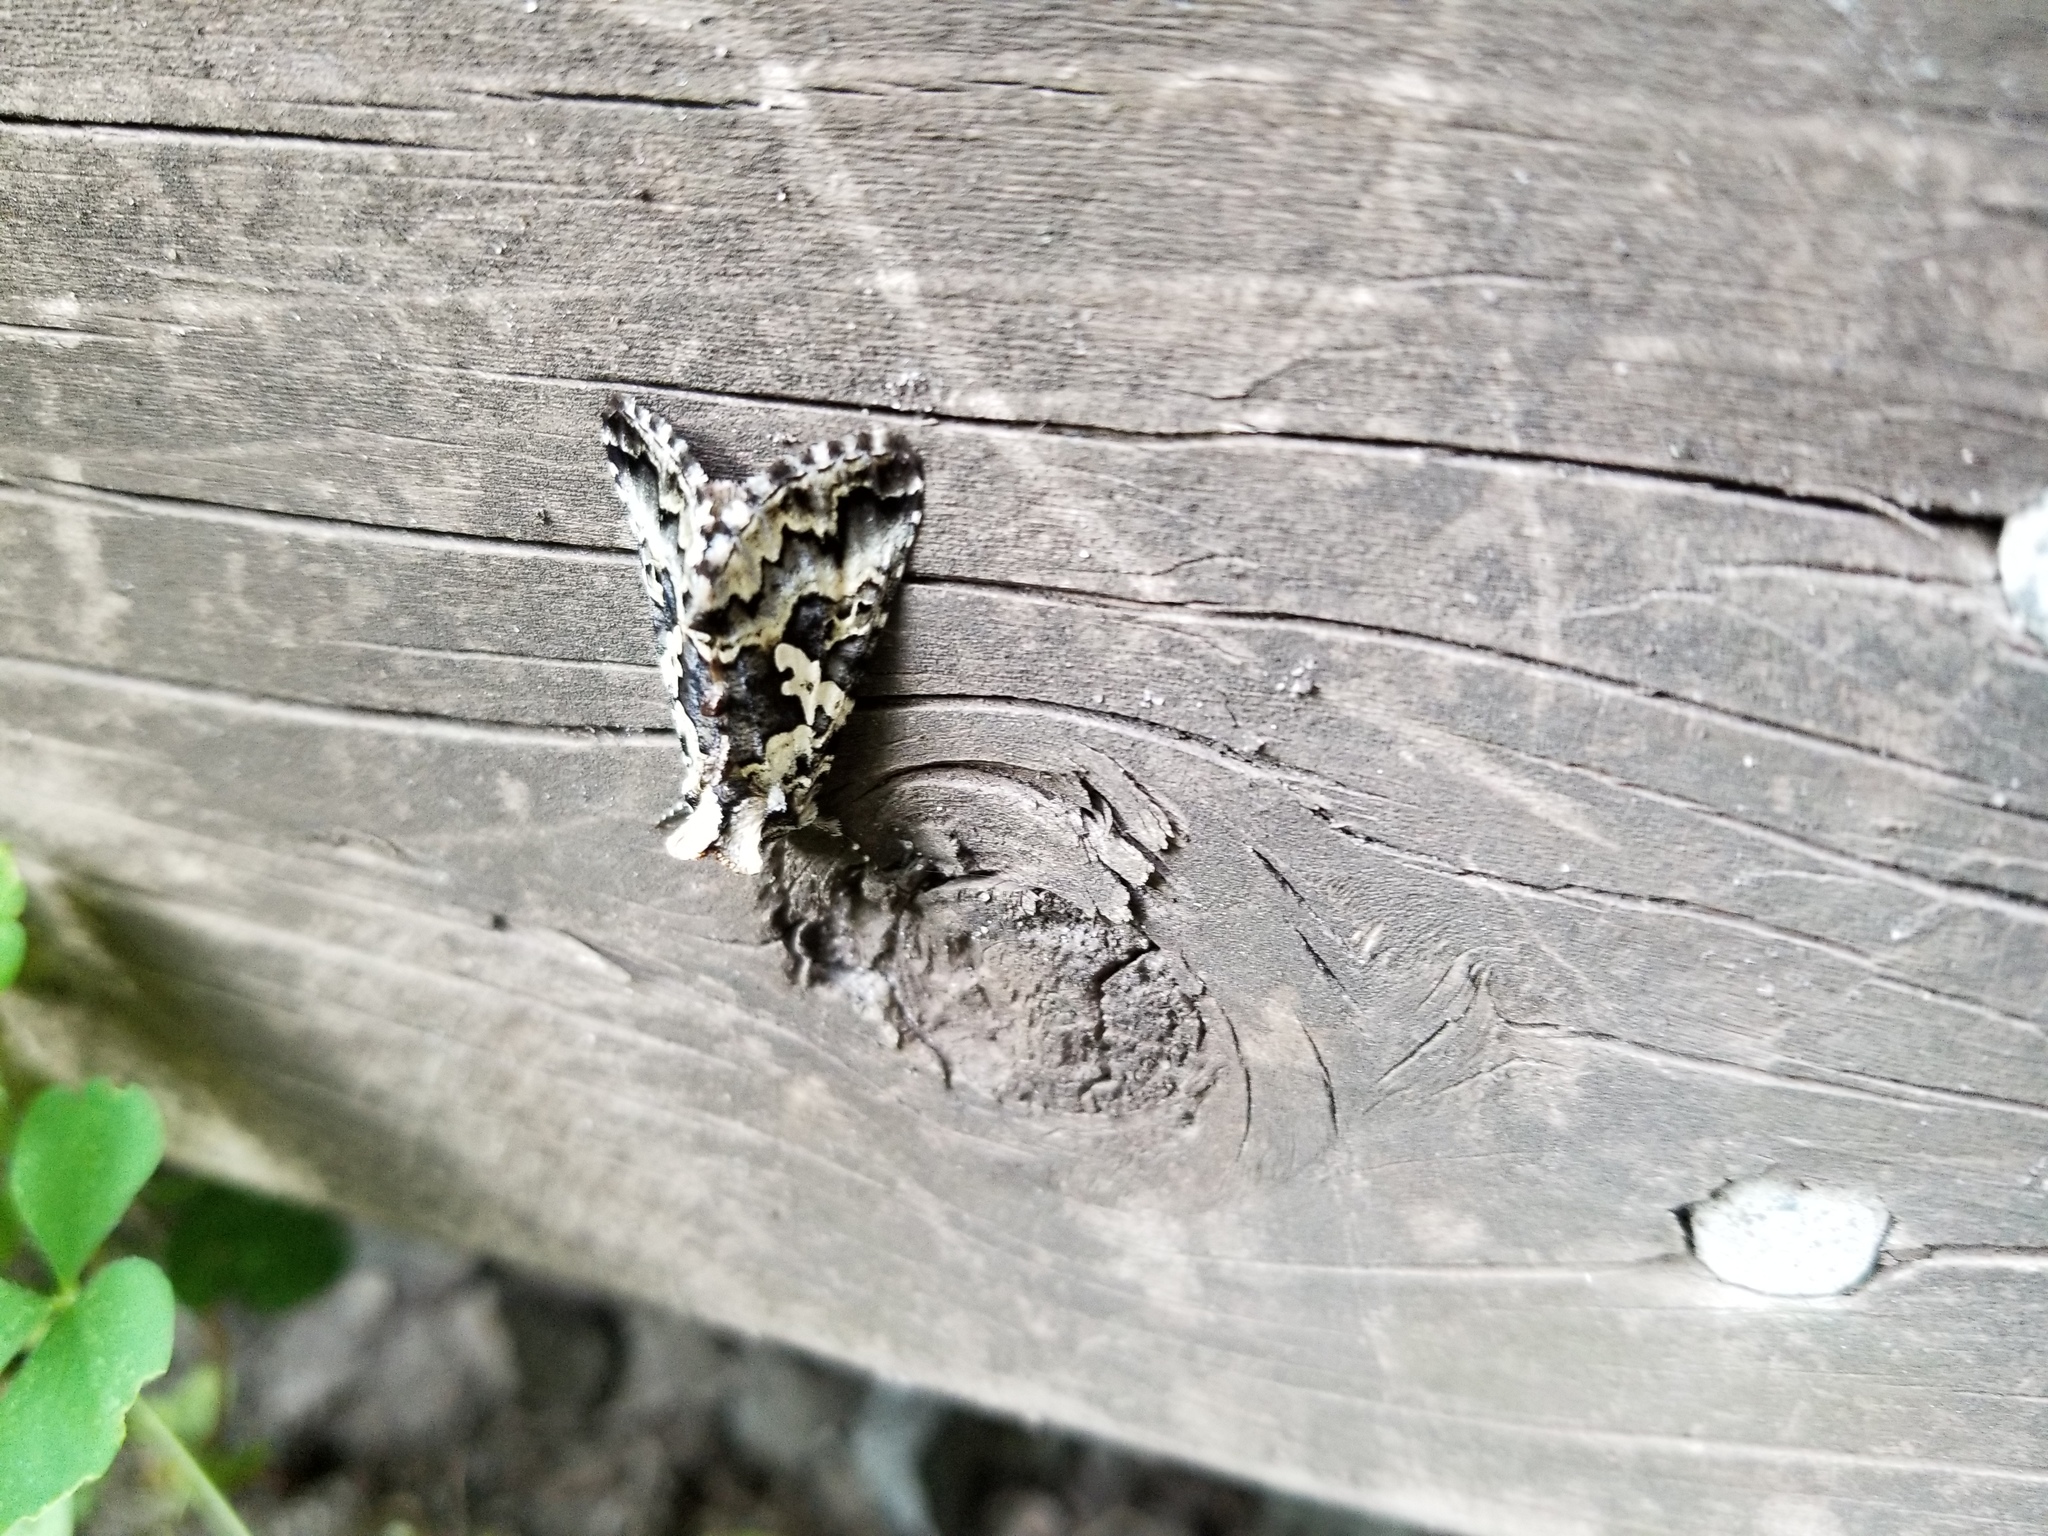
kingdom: Animalia
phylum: Arthropoda
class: Insecta
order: Lepidoptera
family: Noctuidae
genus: Syngrapha
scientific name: Syngrapha rectangula
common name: Angulated cutworm
